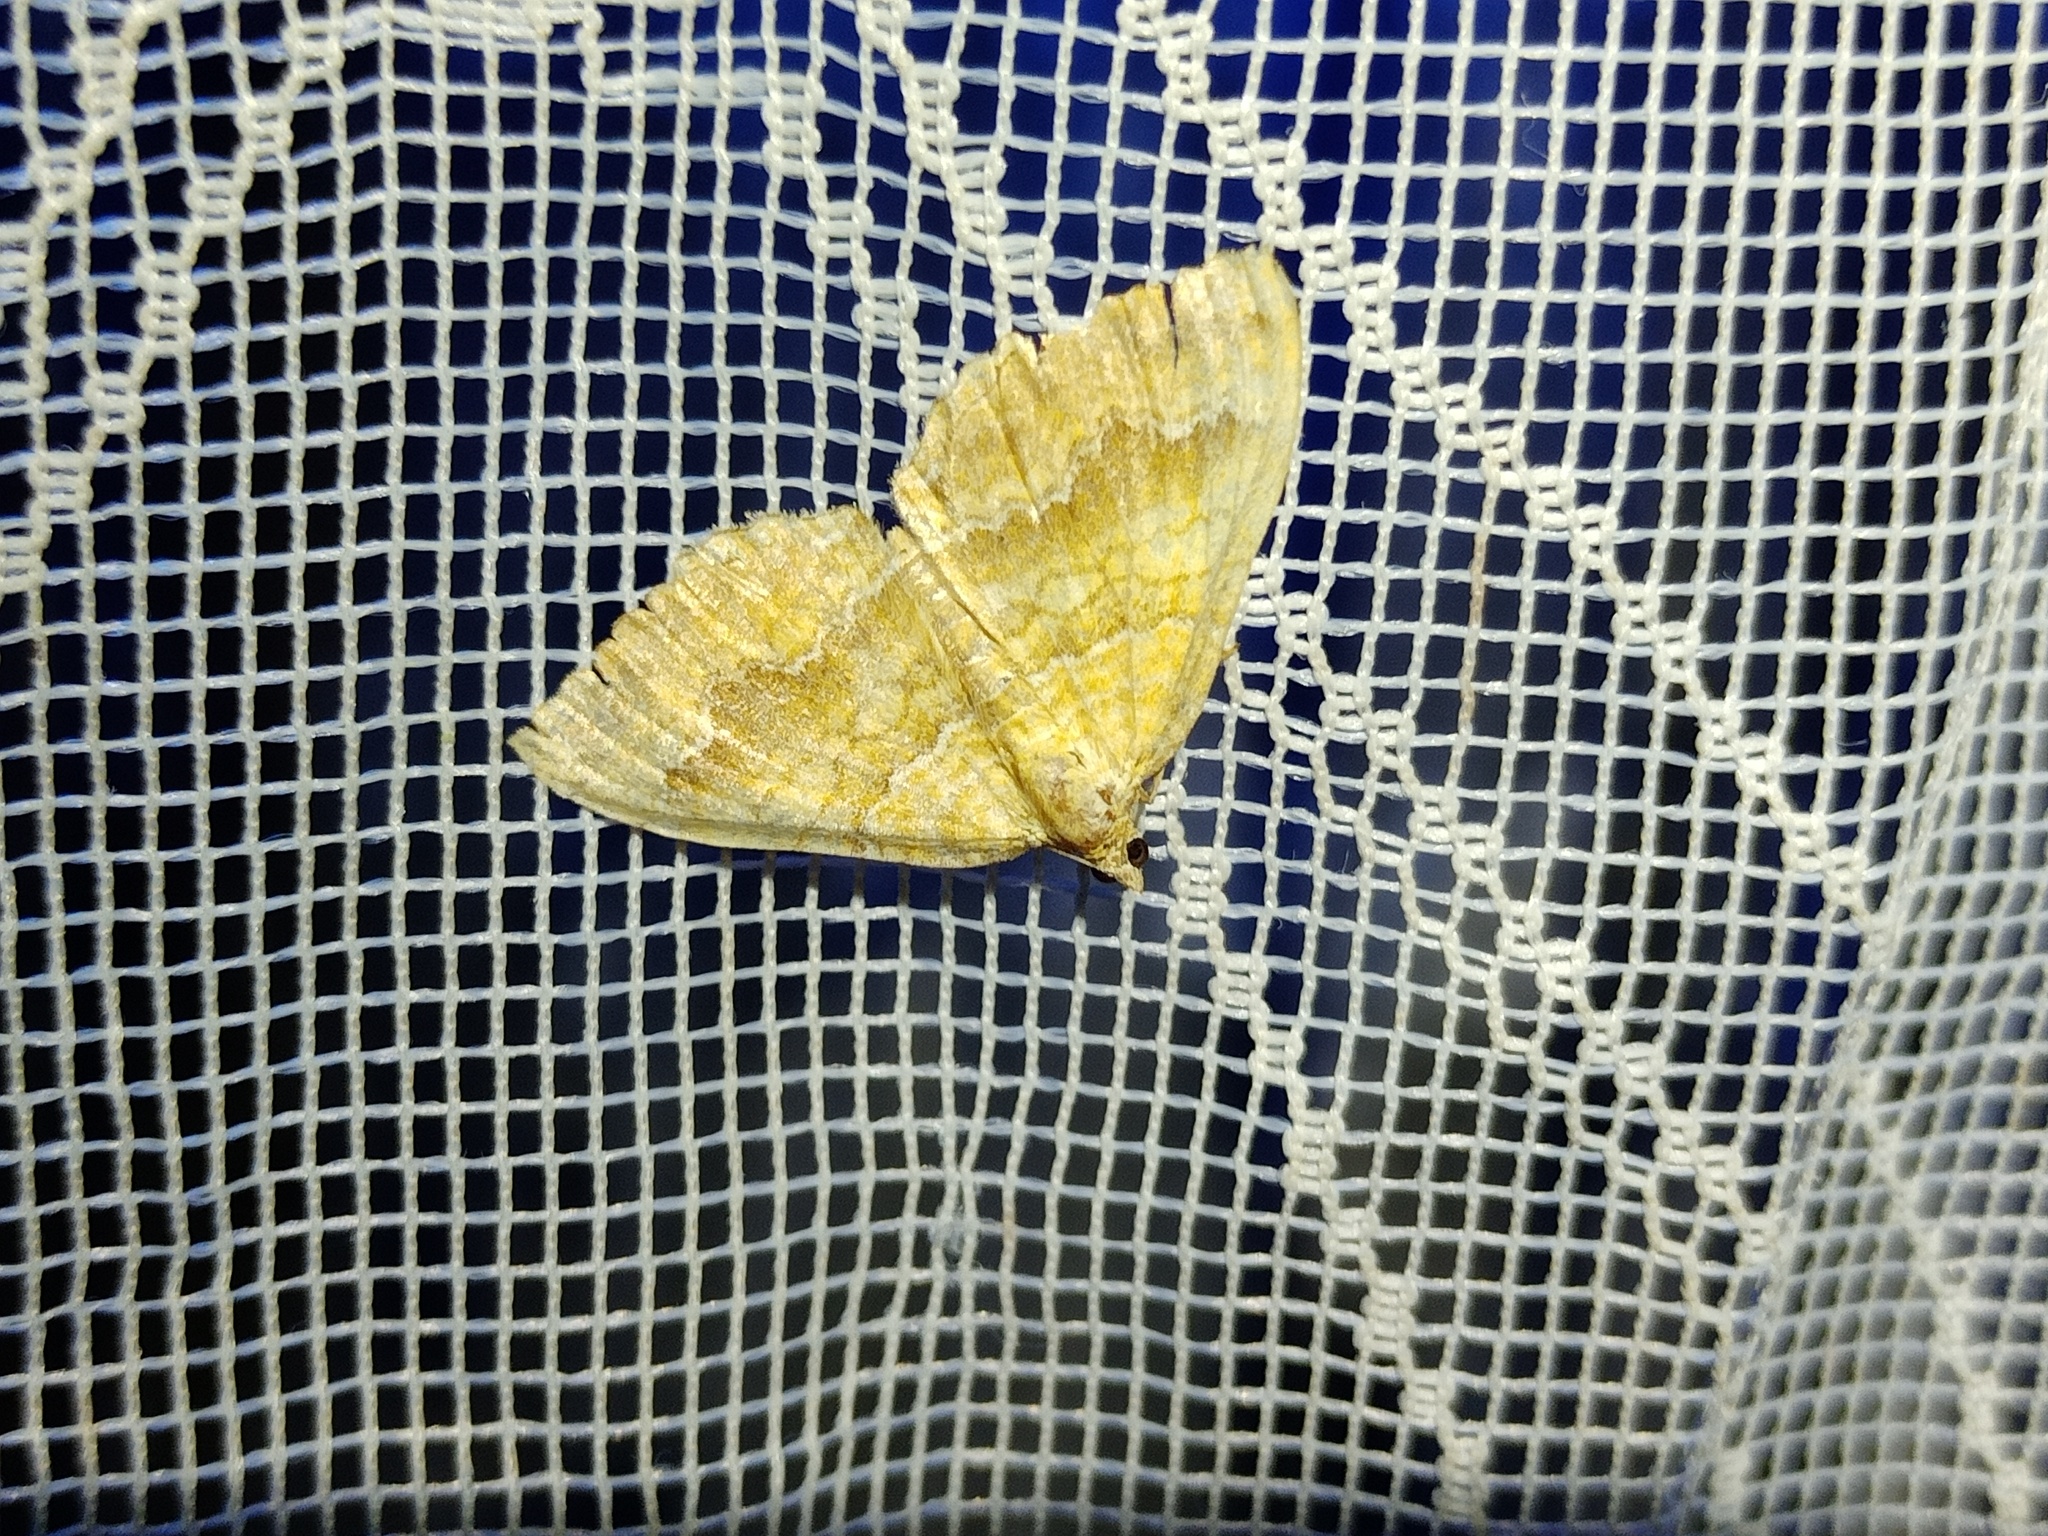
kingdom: Animalia
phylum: Arthropoda
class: Insecta
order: Lepidoptera
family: Geometridae
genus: Camptogramma
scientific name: Camptogramma bilineata
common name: Yellow shell
